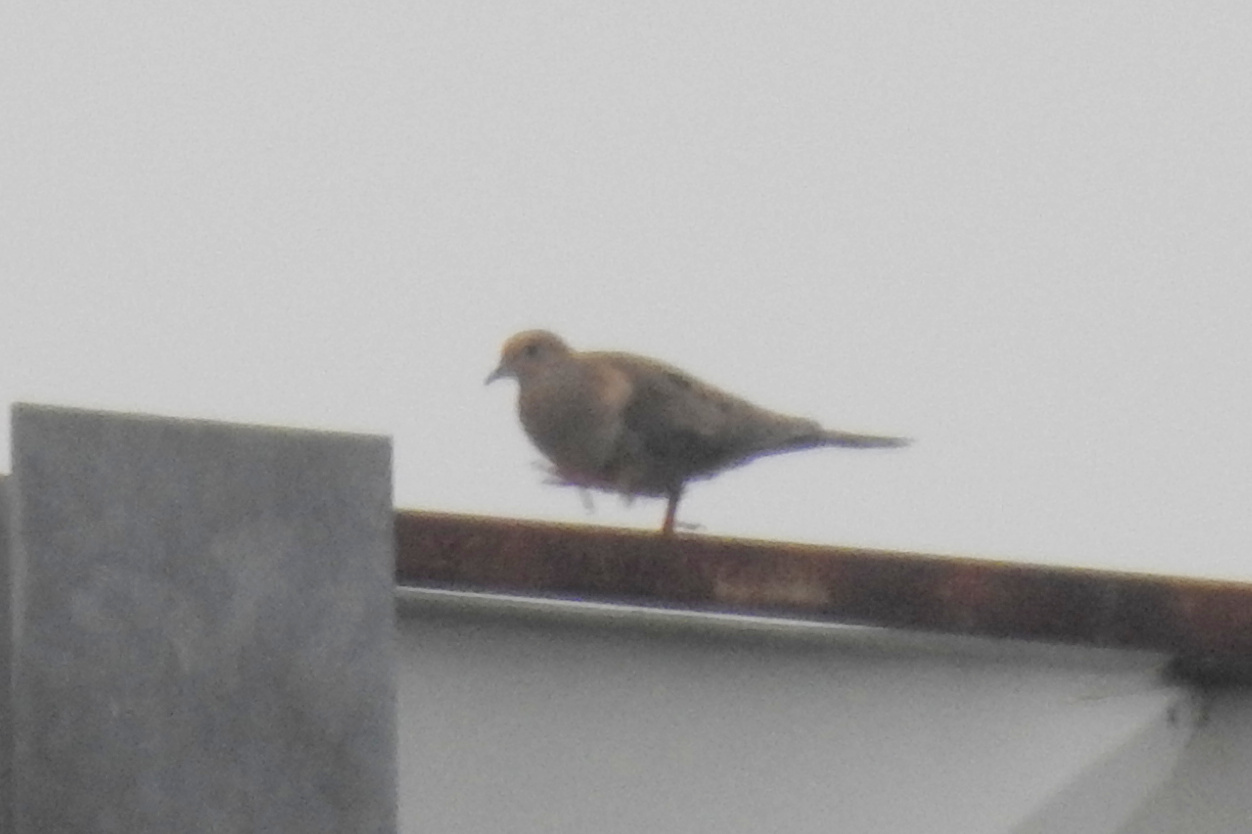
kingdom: Animalia
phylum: Chordata
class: Aves
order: Columbiformes
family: Columbidae
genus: Zenaida
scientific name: Zenaida macroura
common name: Mourning dove
